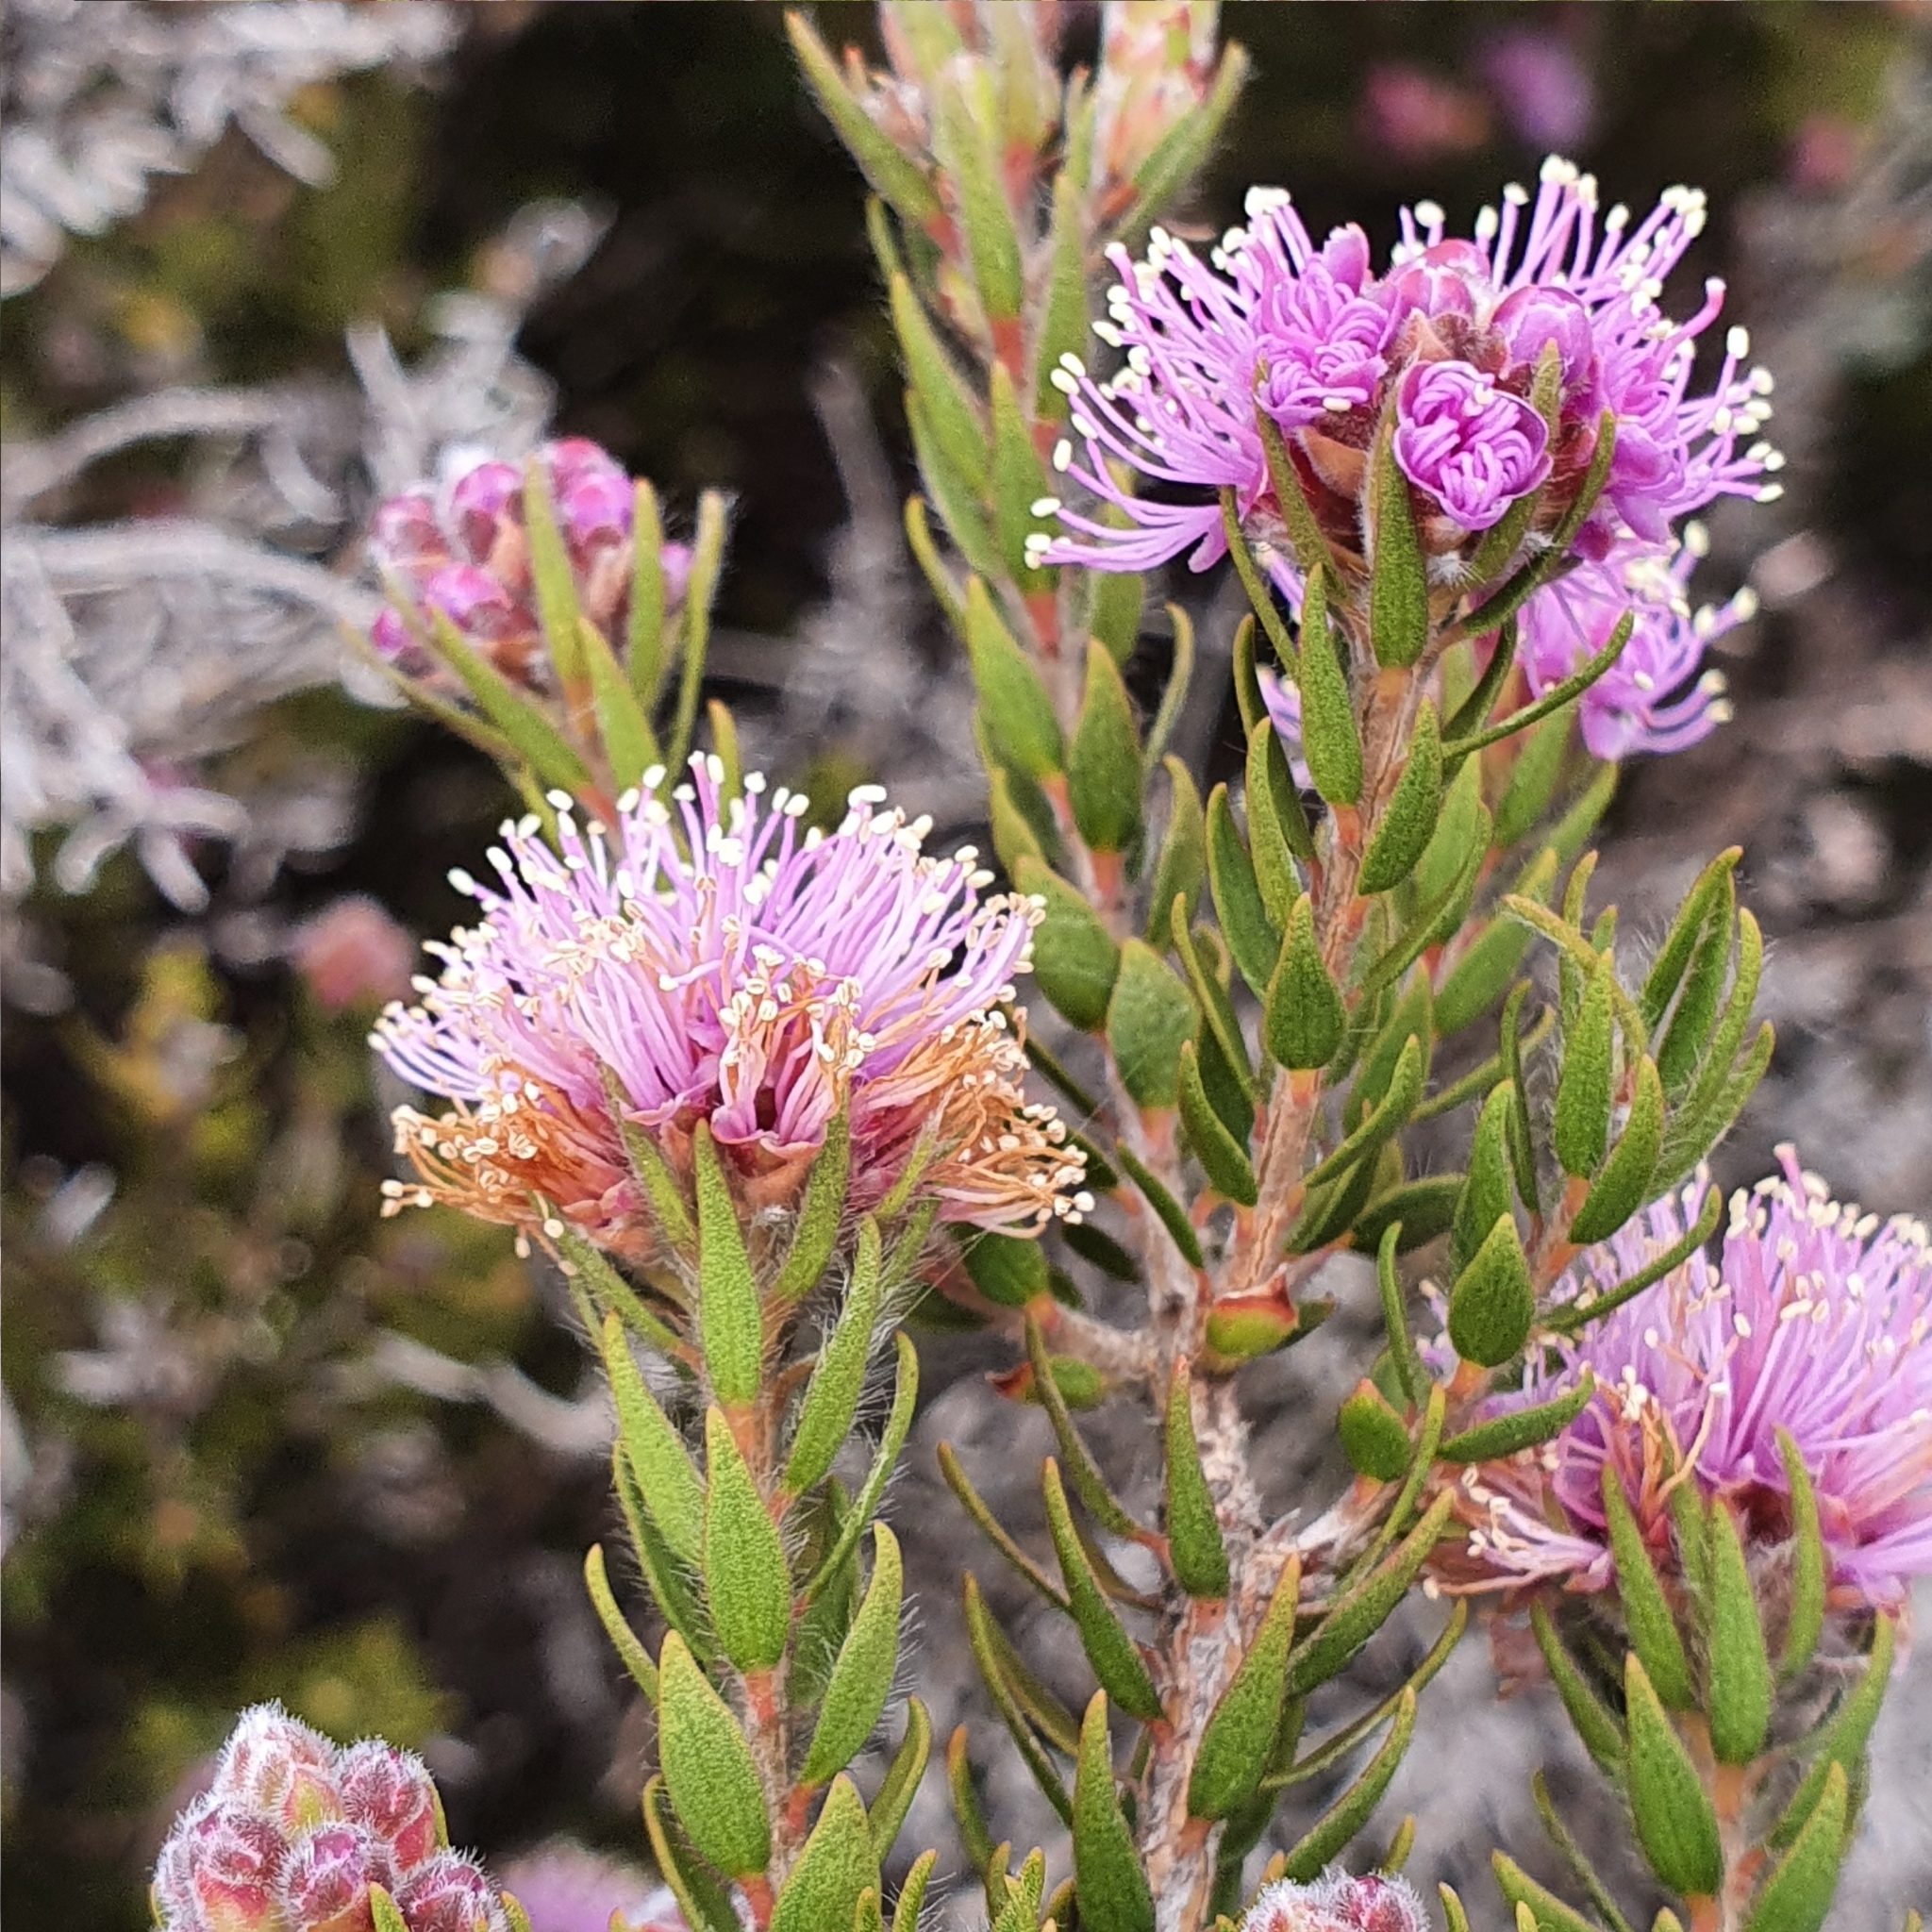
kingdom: Plantae
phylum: Tracheophyta
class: Magnoliopsida
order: Myrtales
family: Myrtaceae
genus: Melaleuca
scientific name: Melaleuca squamea
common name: Swamp melaleuca
